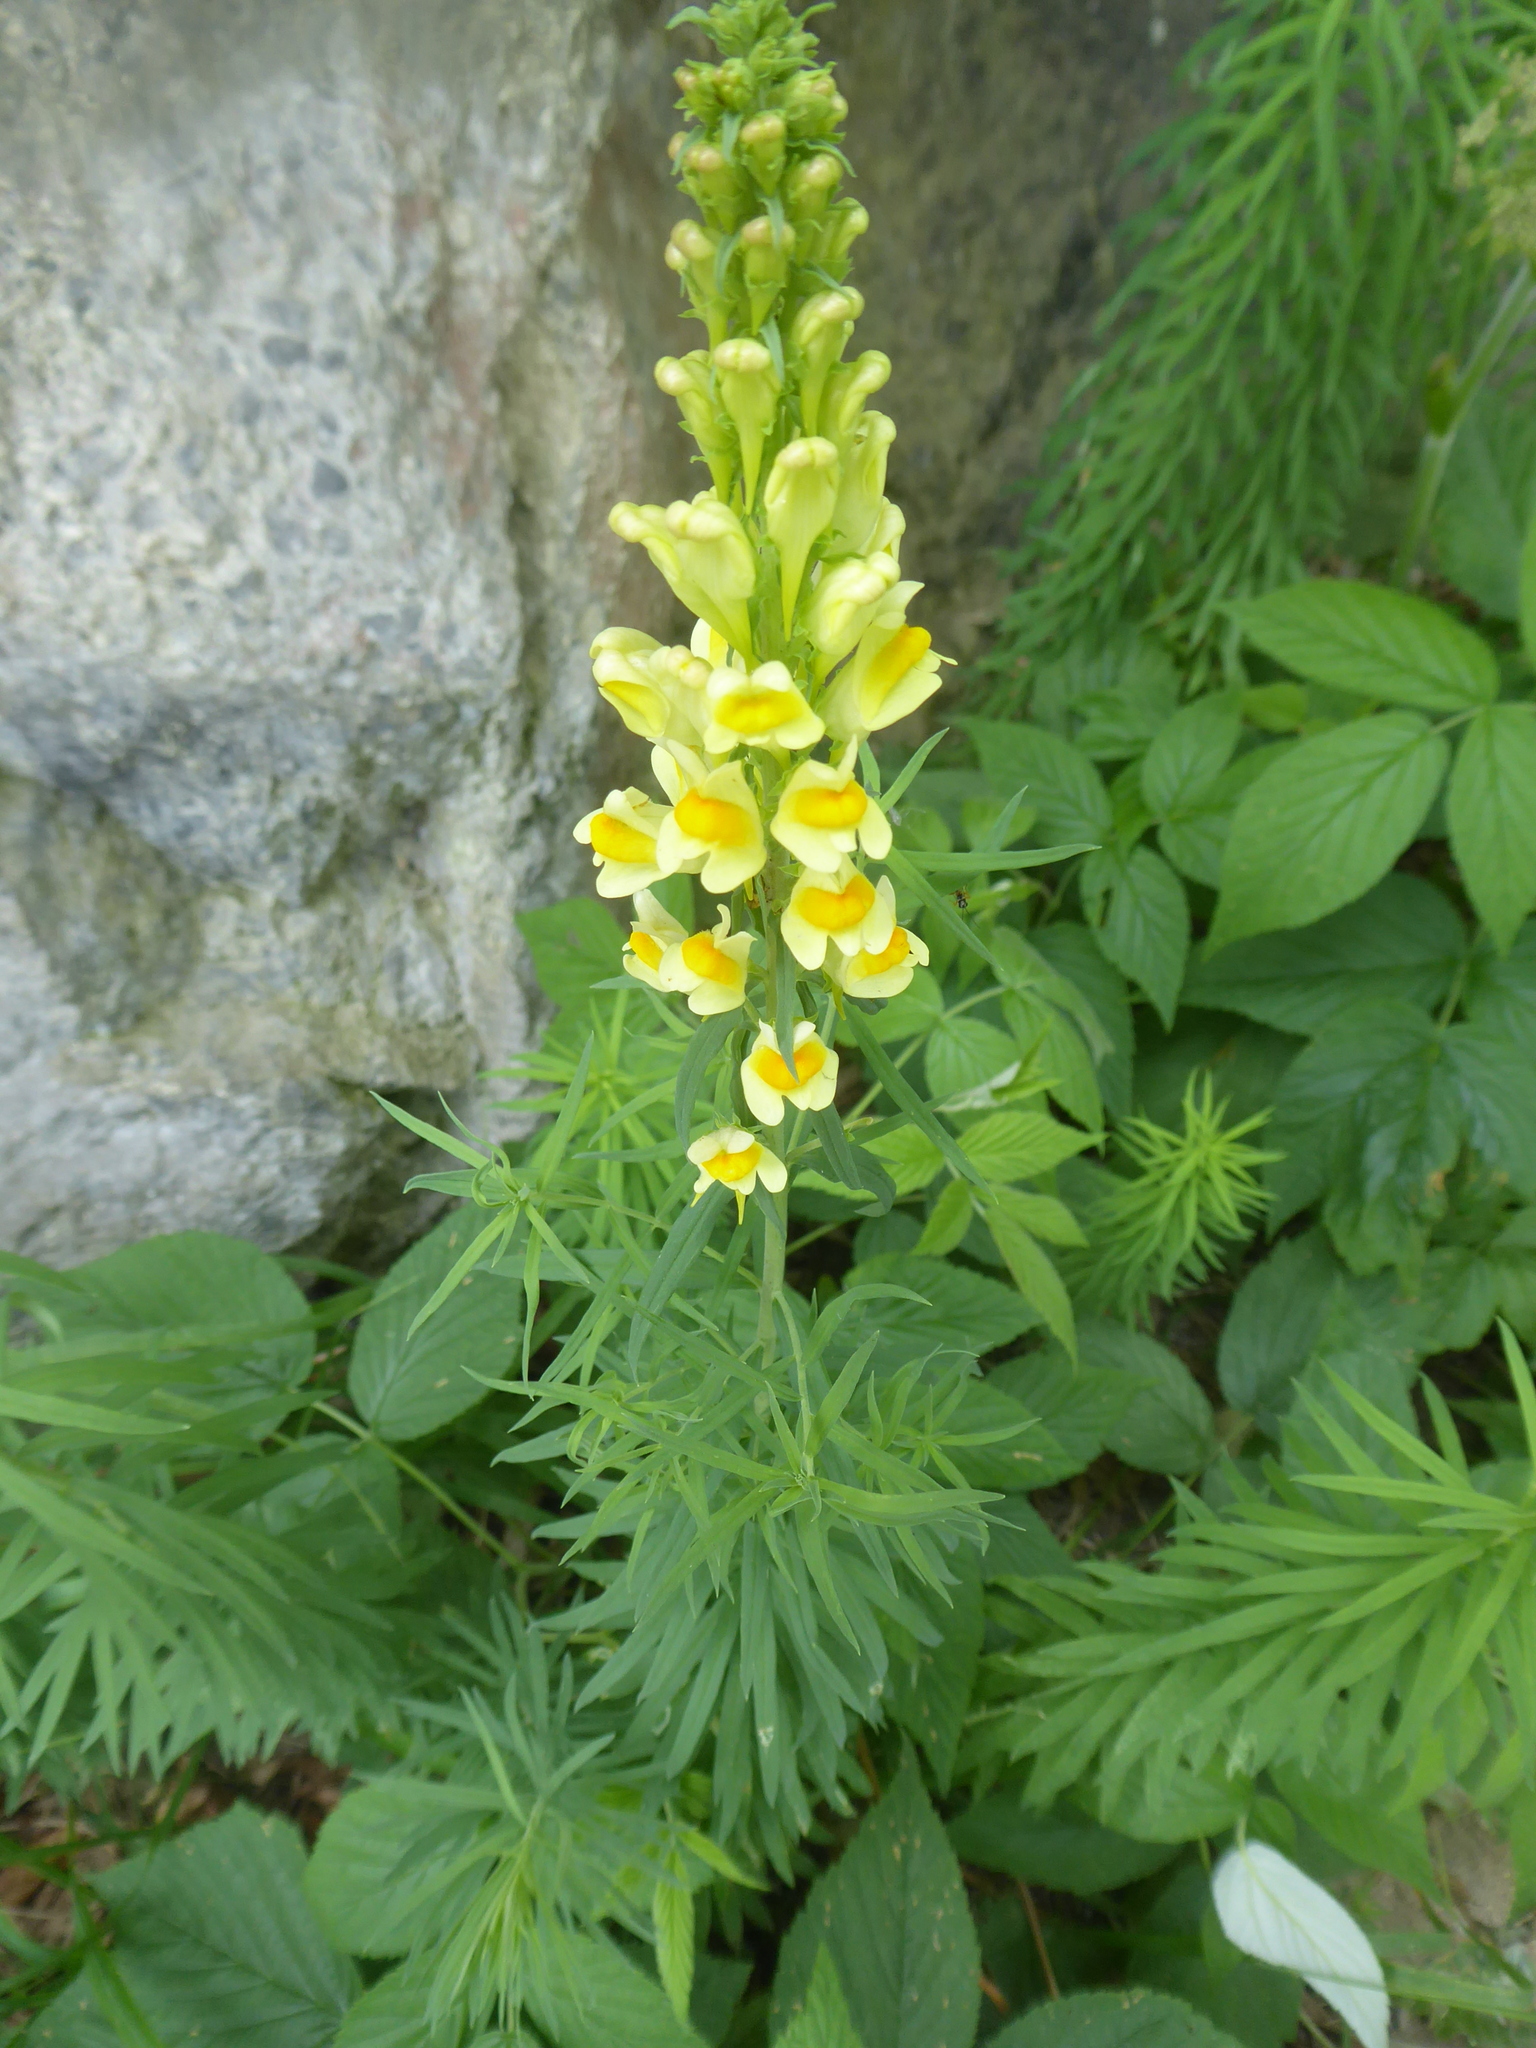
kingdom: Plantae
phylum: Tracheophyta
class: Magnoliopsida
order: Lamiales
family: Plantaginaceae
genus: Linaria
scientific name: Linaria vulgaris
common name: Butter and eggs
